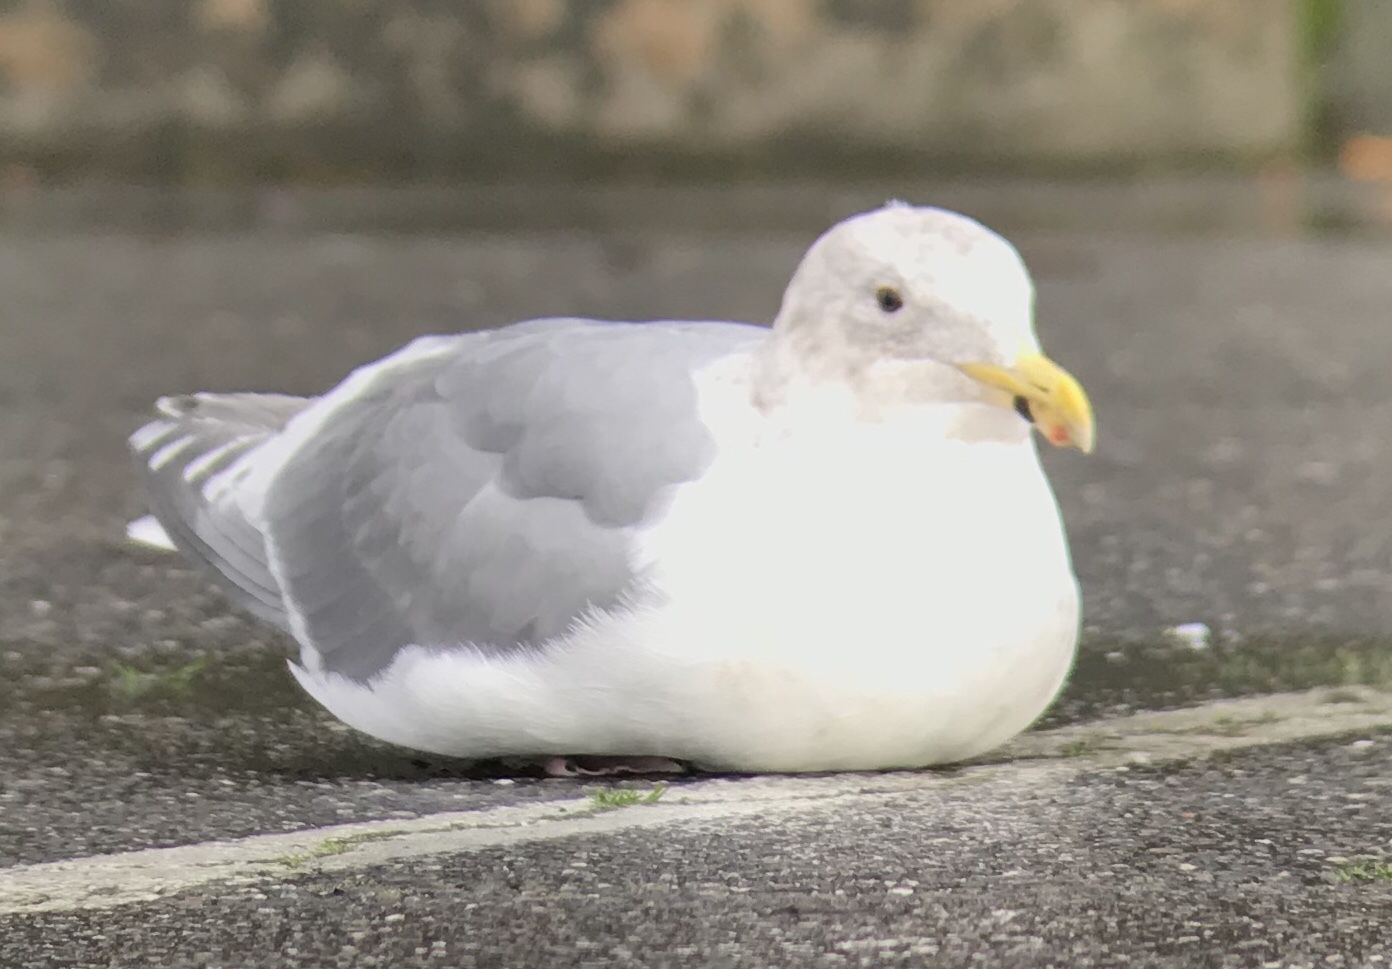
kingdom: Animalia
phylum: Chordata
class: Aves
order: Charadriiformes
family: Laridae
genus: Larus
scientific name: Larus glaucescens
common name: Glaucous-winged gull
